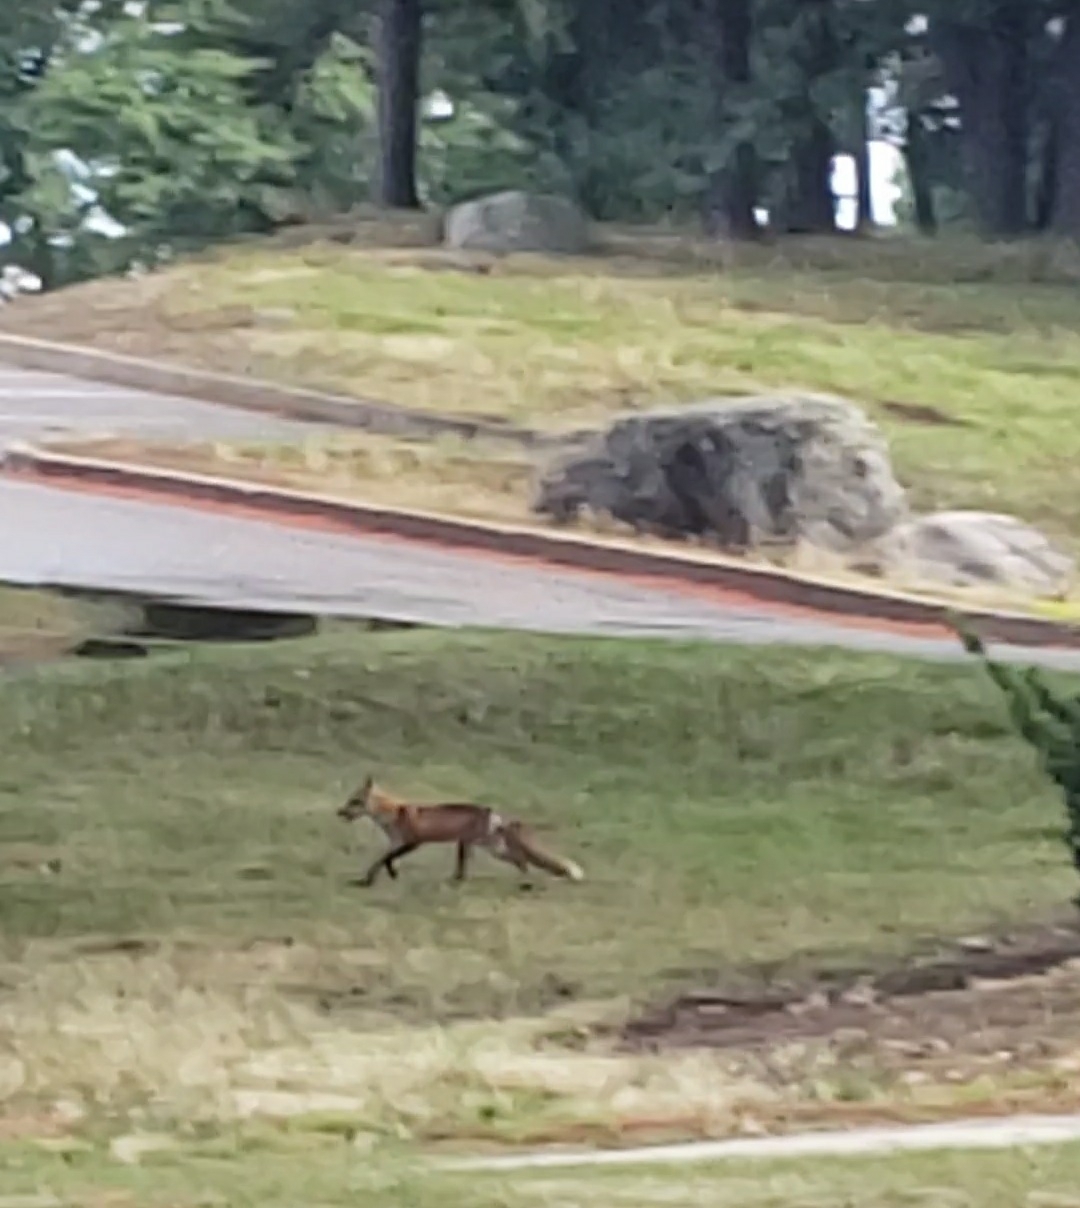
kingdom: Animalia
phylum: Chordata
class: Mammalia
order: Carnivora
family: Canidae
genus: Vulpes
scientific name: Vulpes vulpes
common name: Red fox
